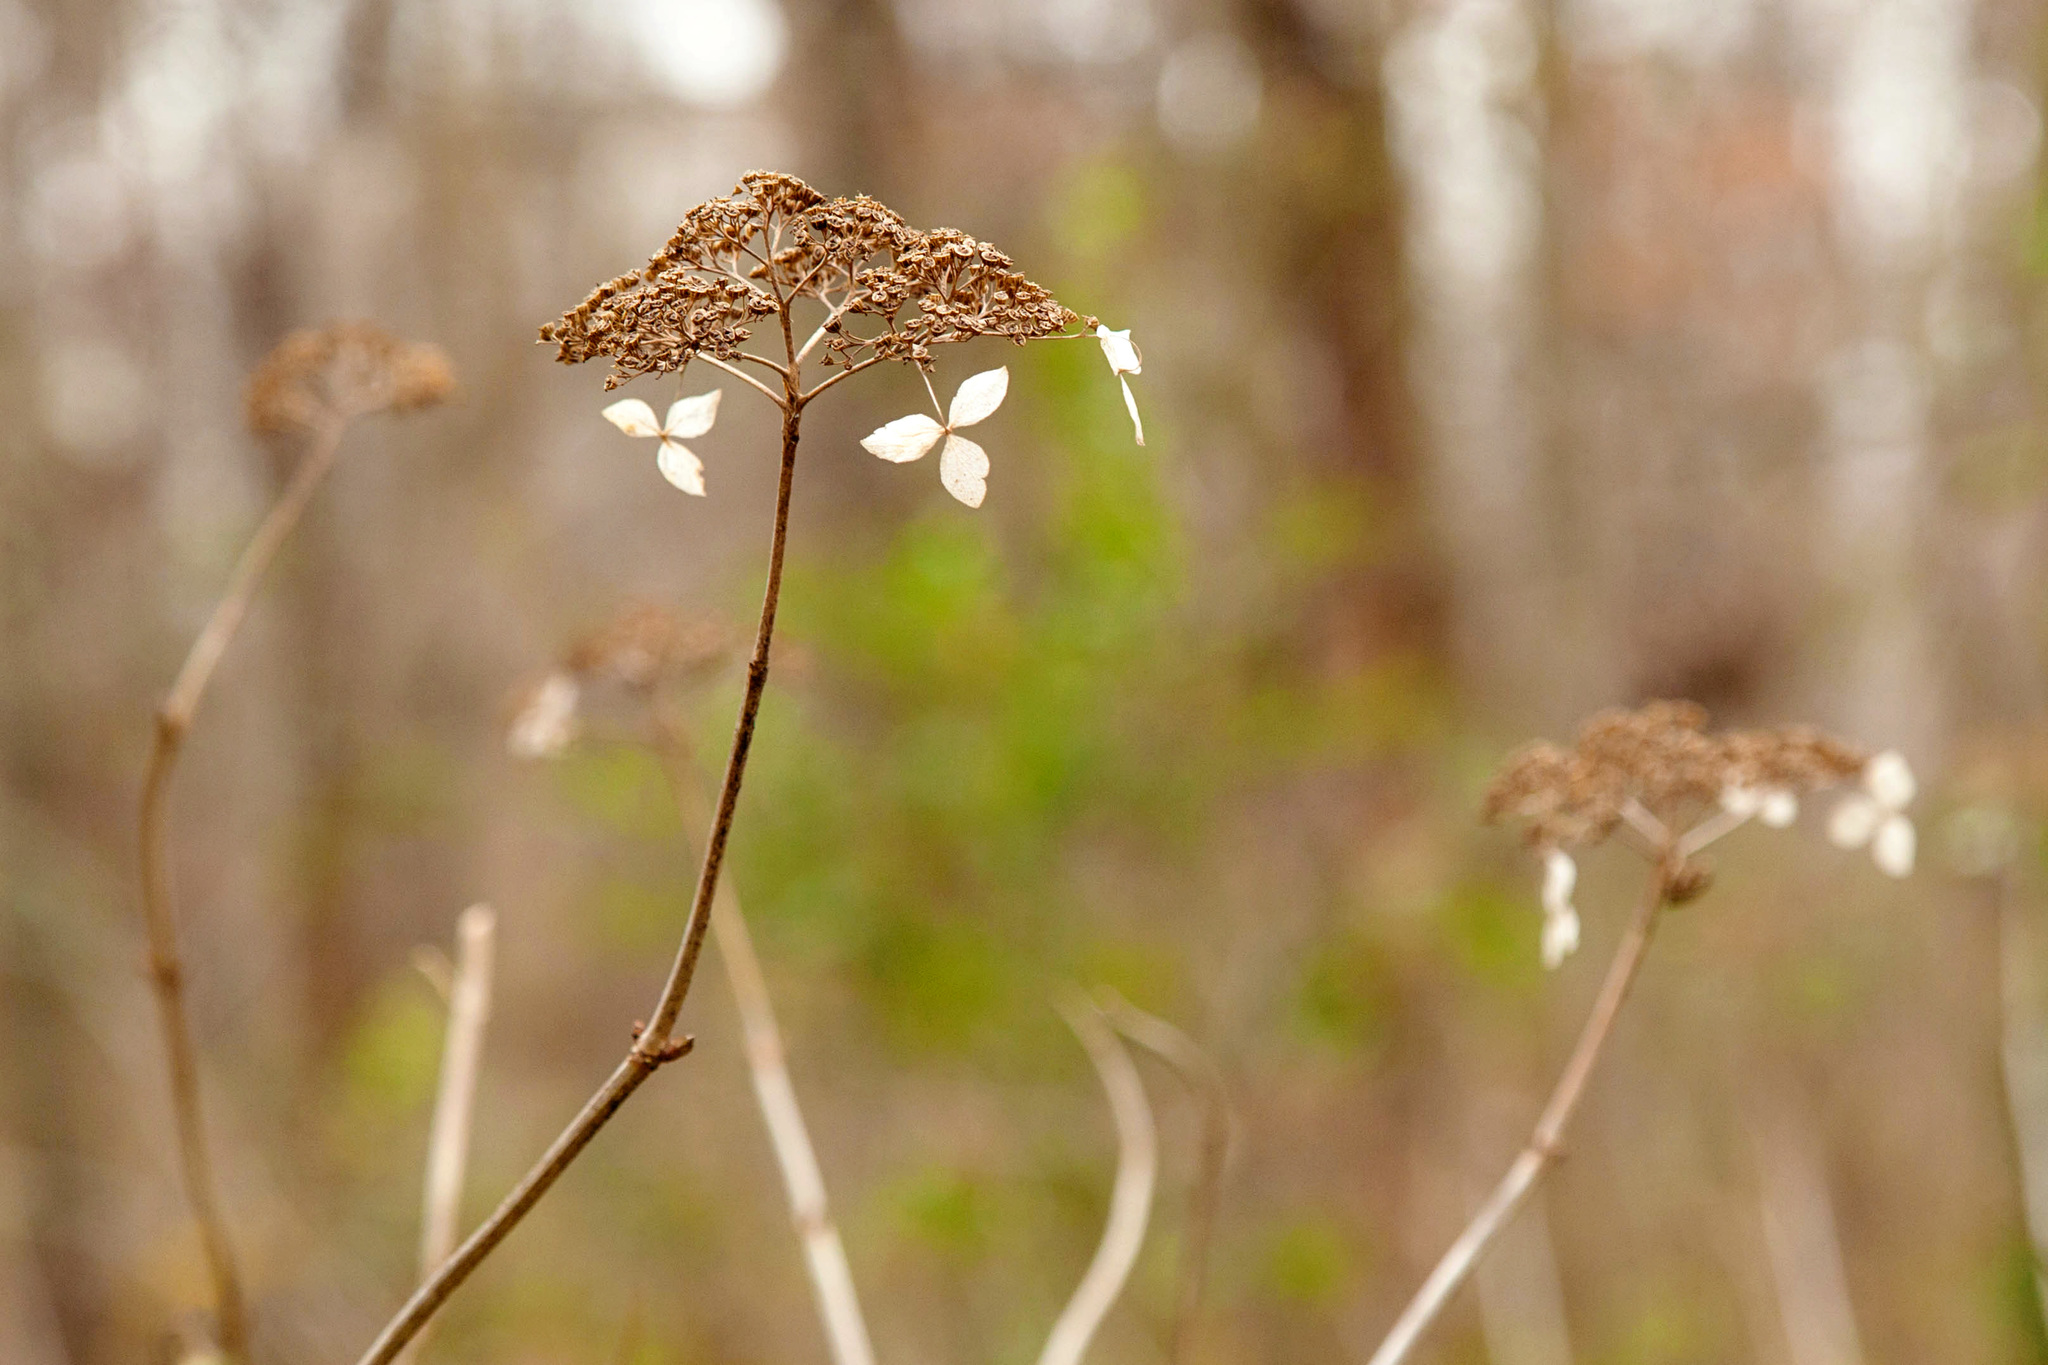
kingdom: Plantae
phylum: Tracheophyta
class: Magnoliopsida
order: Cornales
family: Hydrangeaceae
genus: Hydrangea
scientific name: Hydrangea arborescens
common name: Sevenbark
